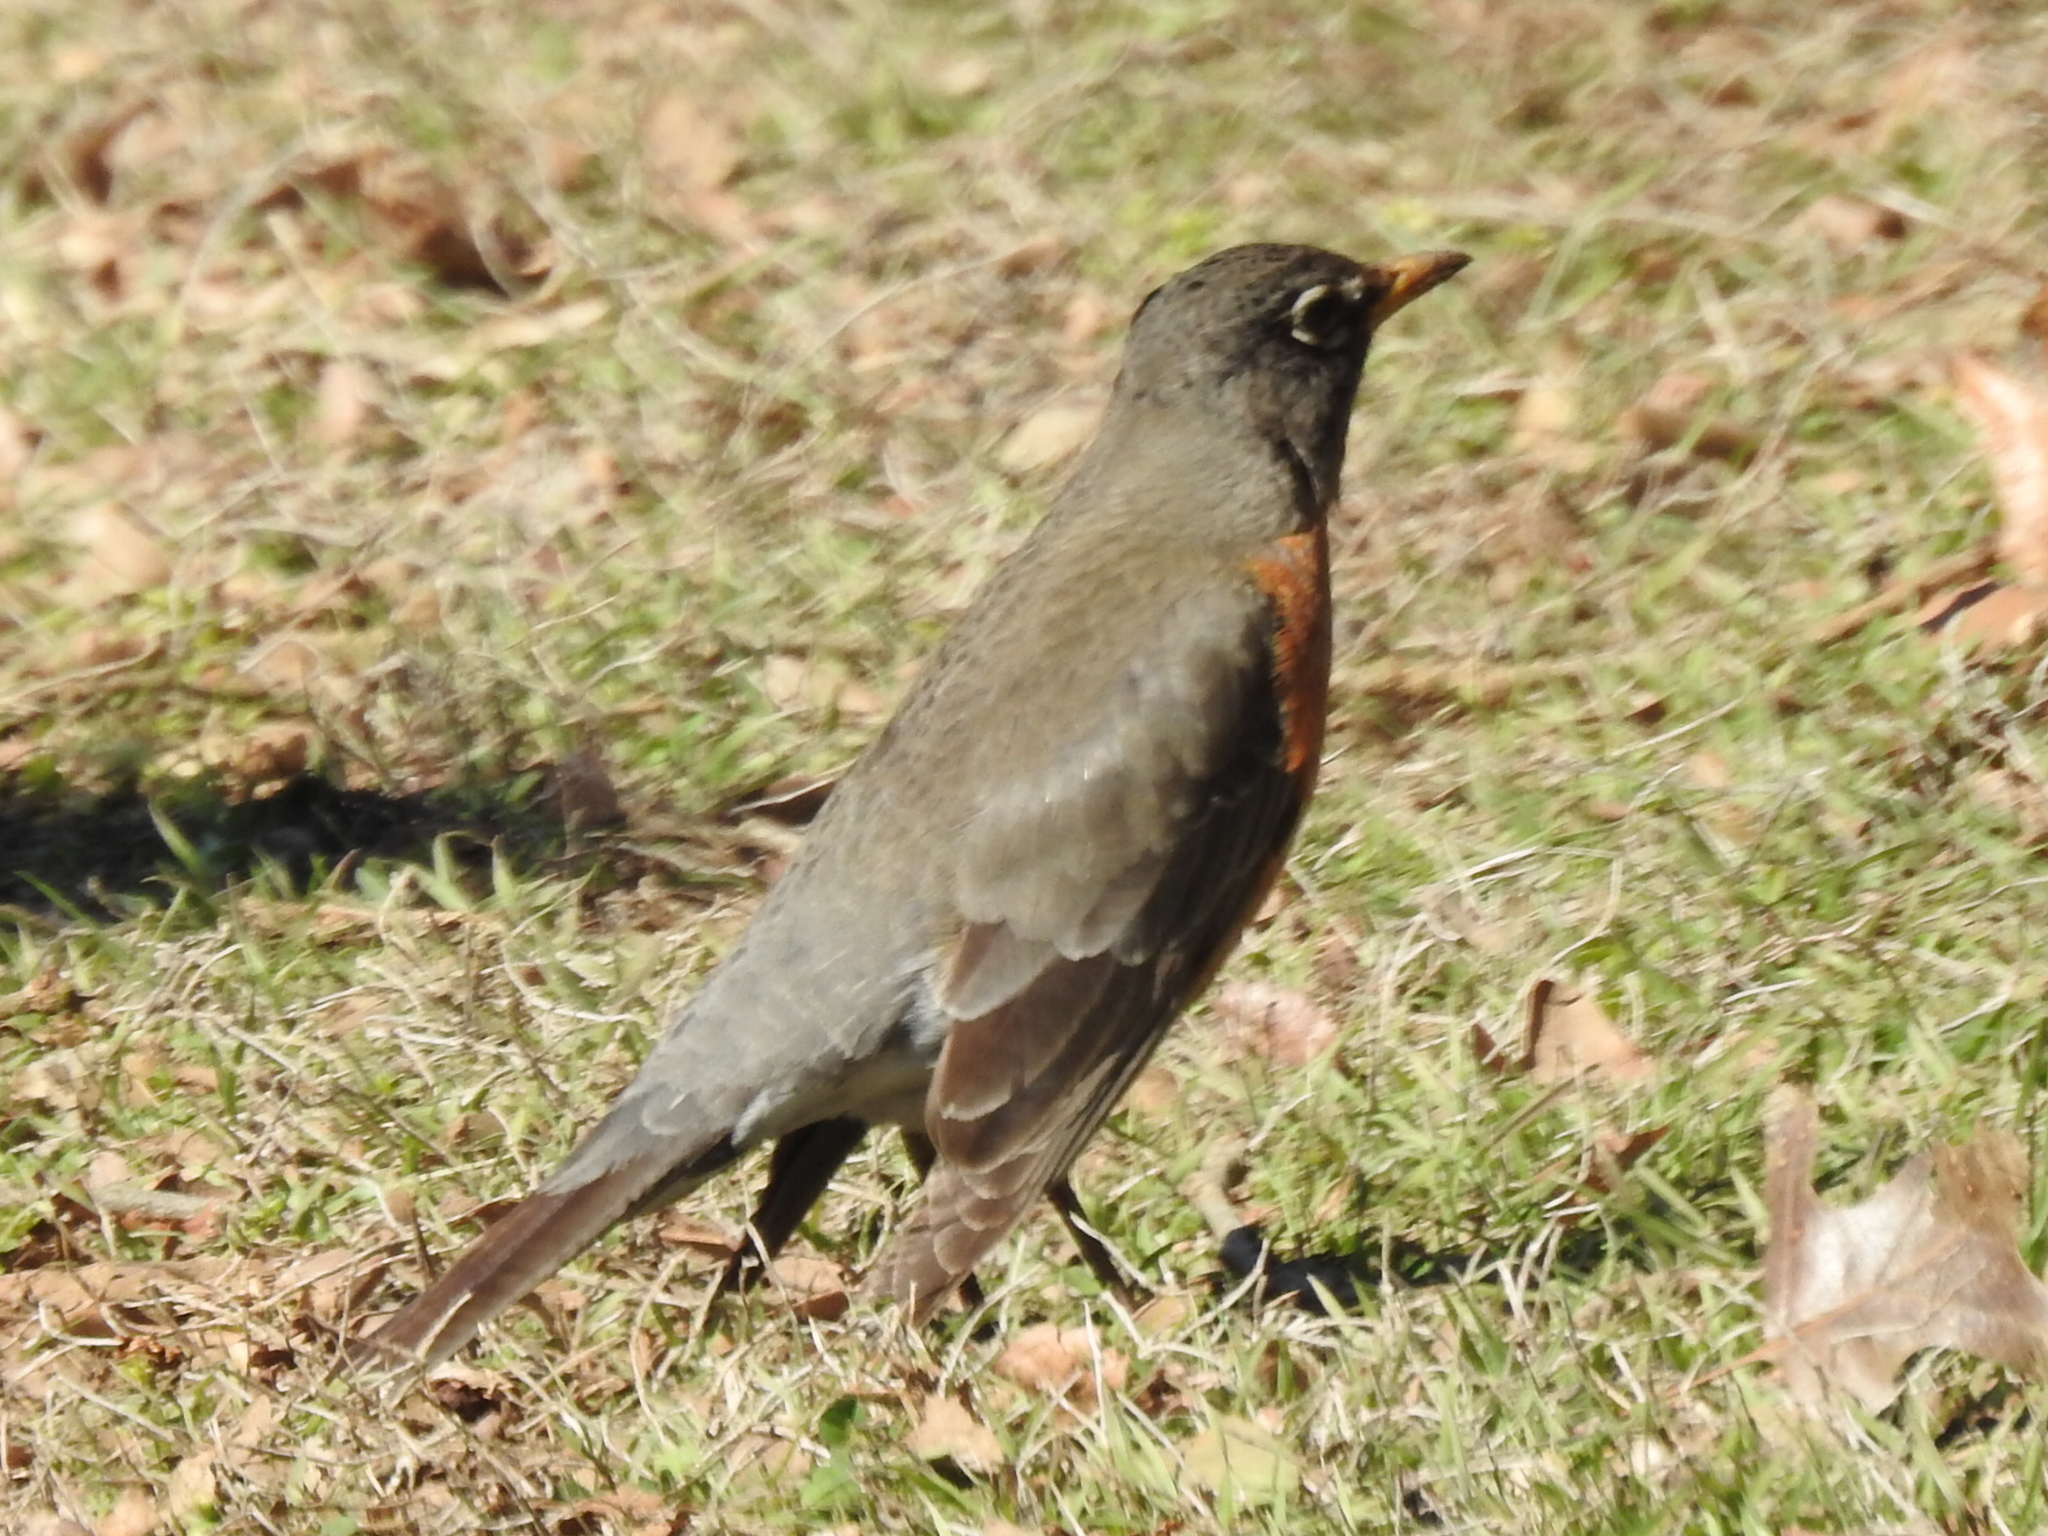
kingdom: Animalia
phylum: Chordata
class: Aves
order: Passeriformes
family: Turdidae
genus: Turdus
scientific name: Turdus migratorius
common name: American robin
